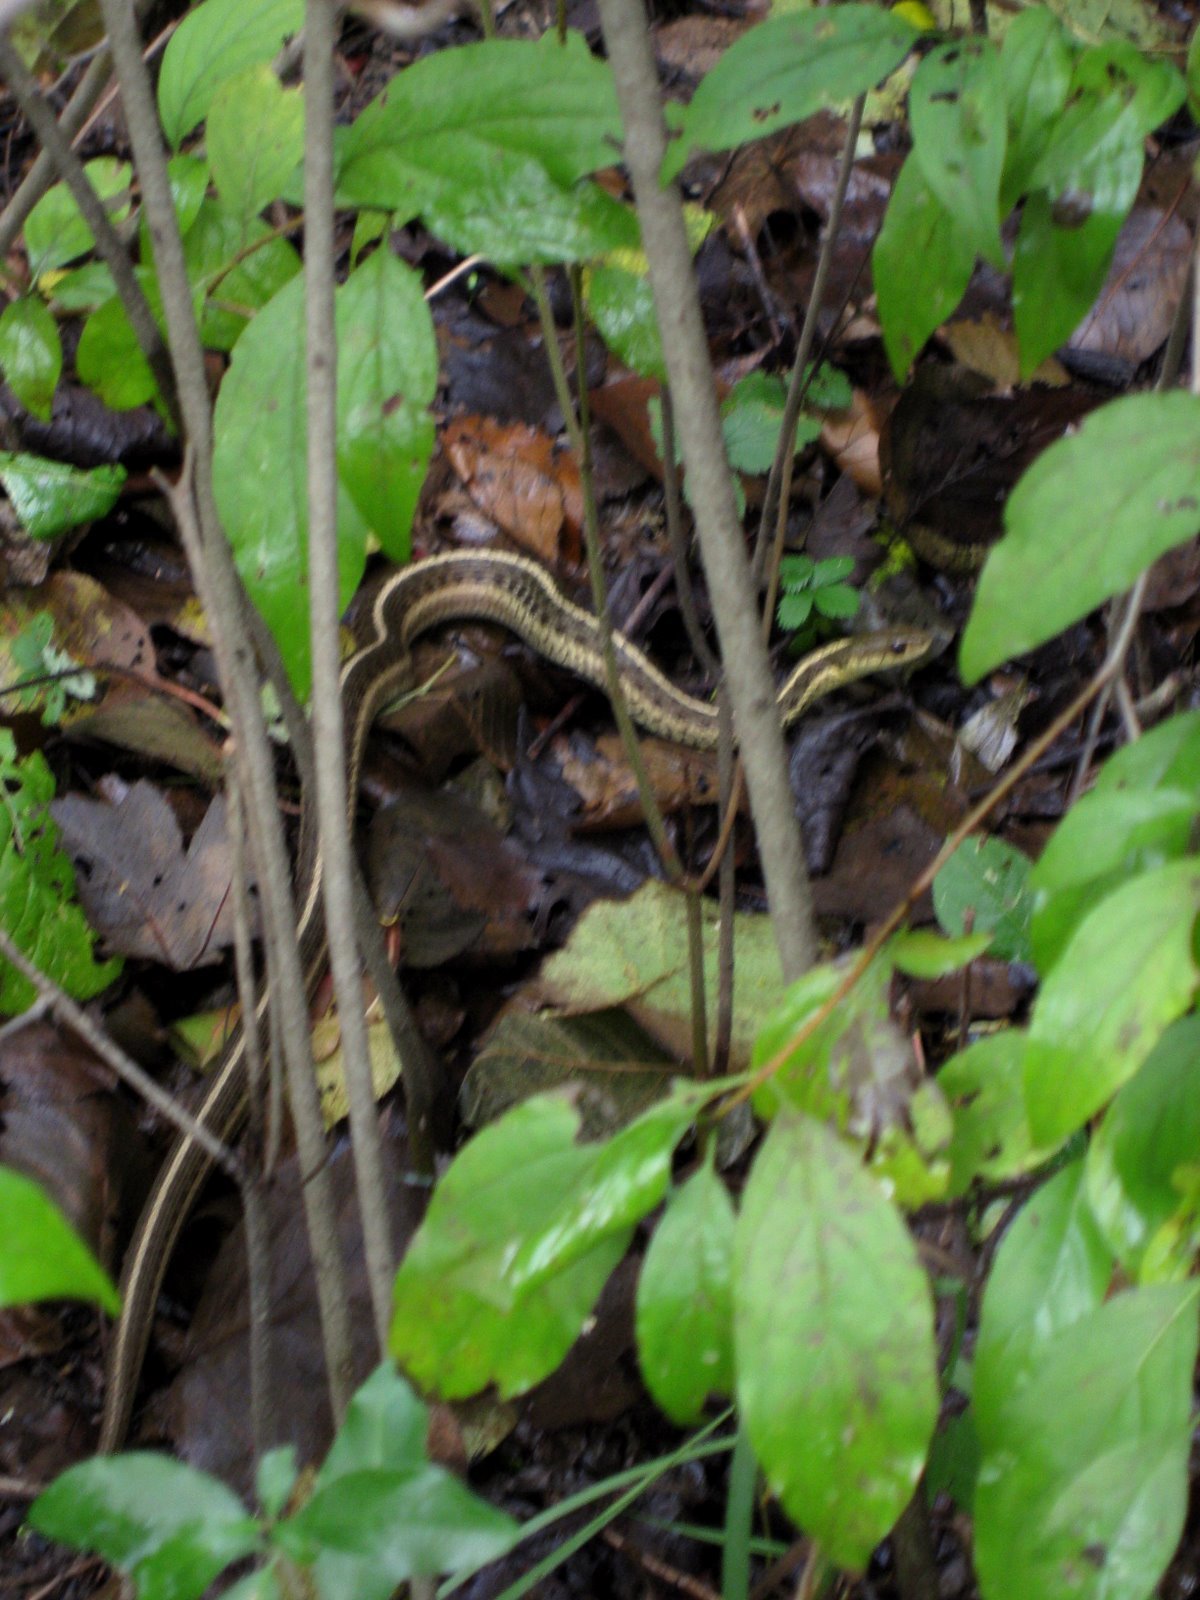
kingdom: Animalia
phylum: Chordata
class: Squamata
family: Colubridae
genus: Thamnophis
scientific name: Thamnophis sirtalis
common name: Common garter snake
